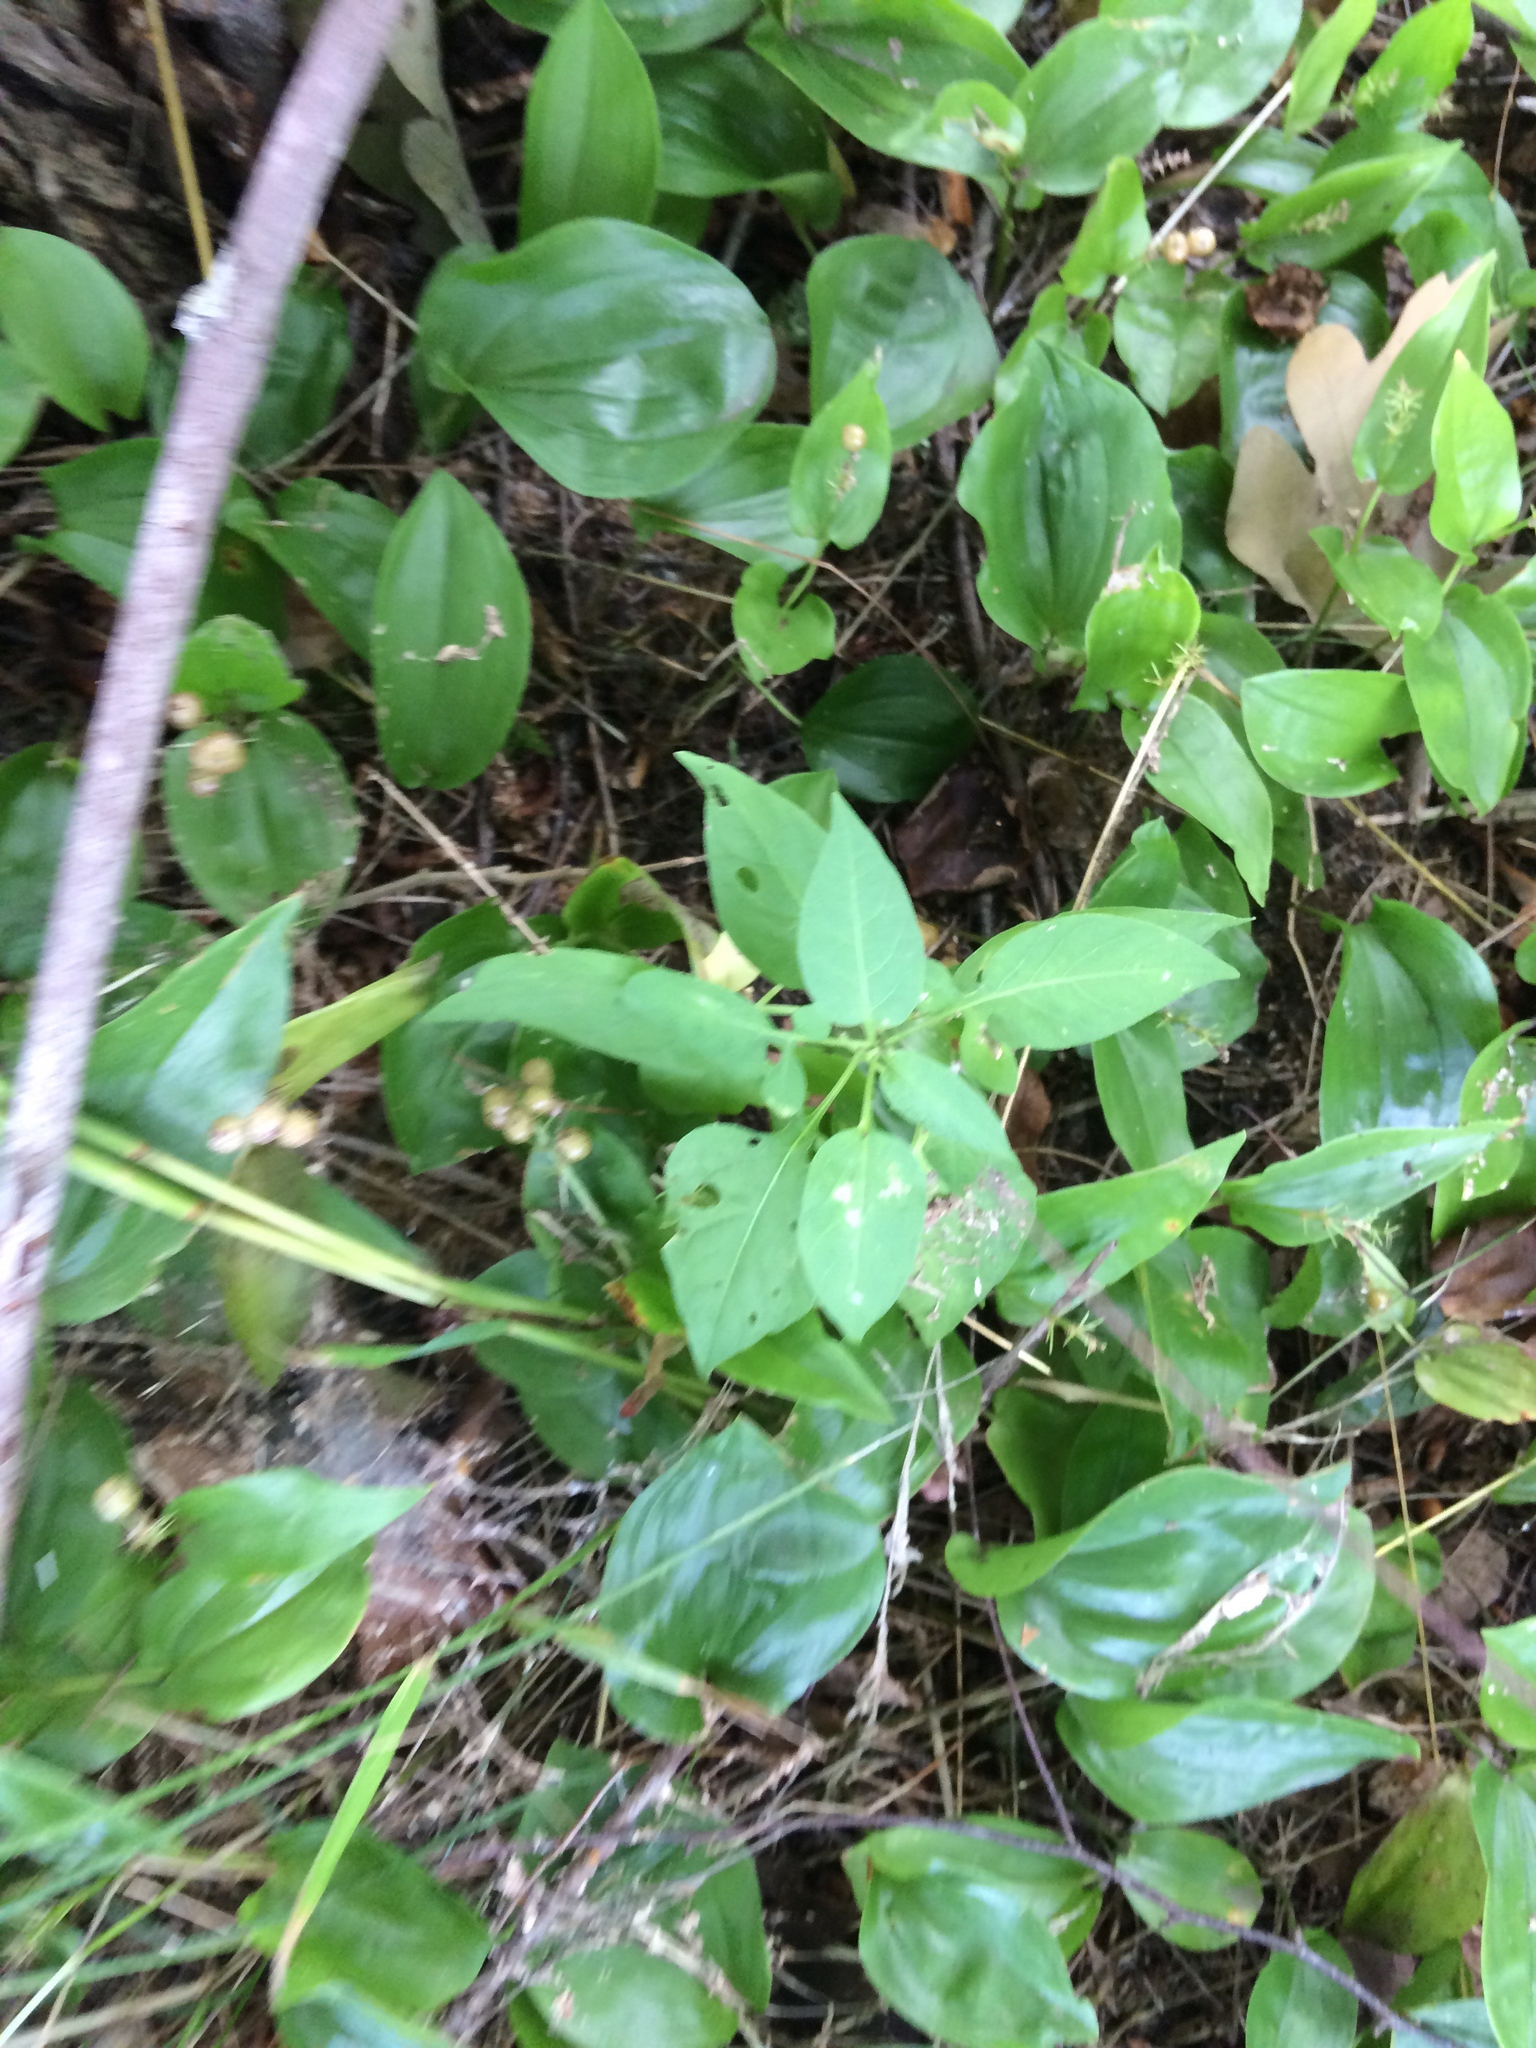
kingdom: Plantae
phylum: Tracheophyta
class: Magnoliopsida
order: Solanales
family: Solanaceae
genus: Solanum
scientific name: Solanum dulcamara
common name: Climbing nightshade
